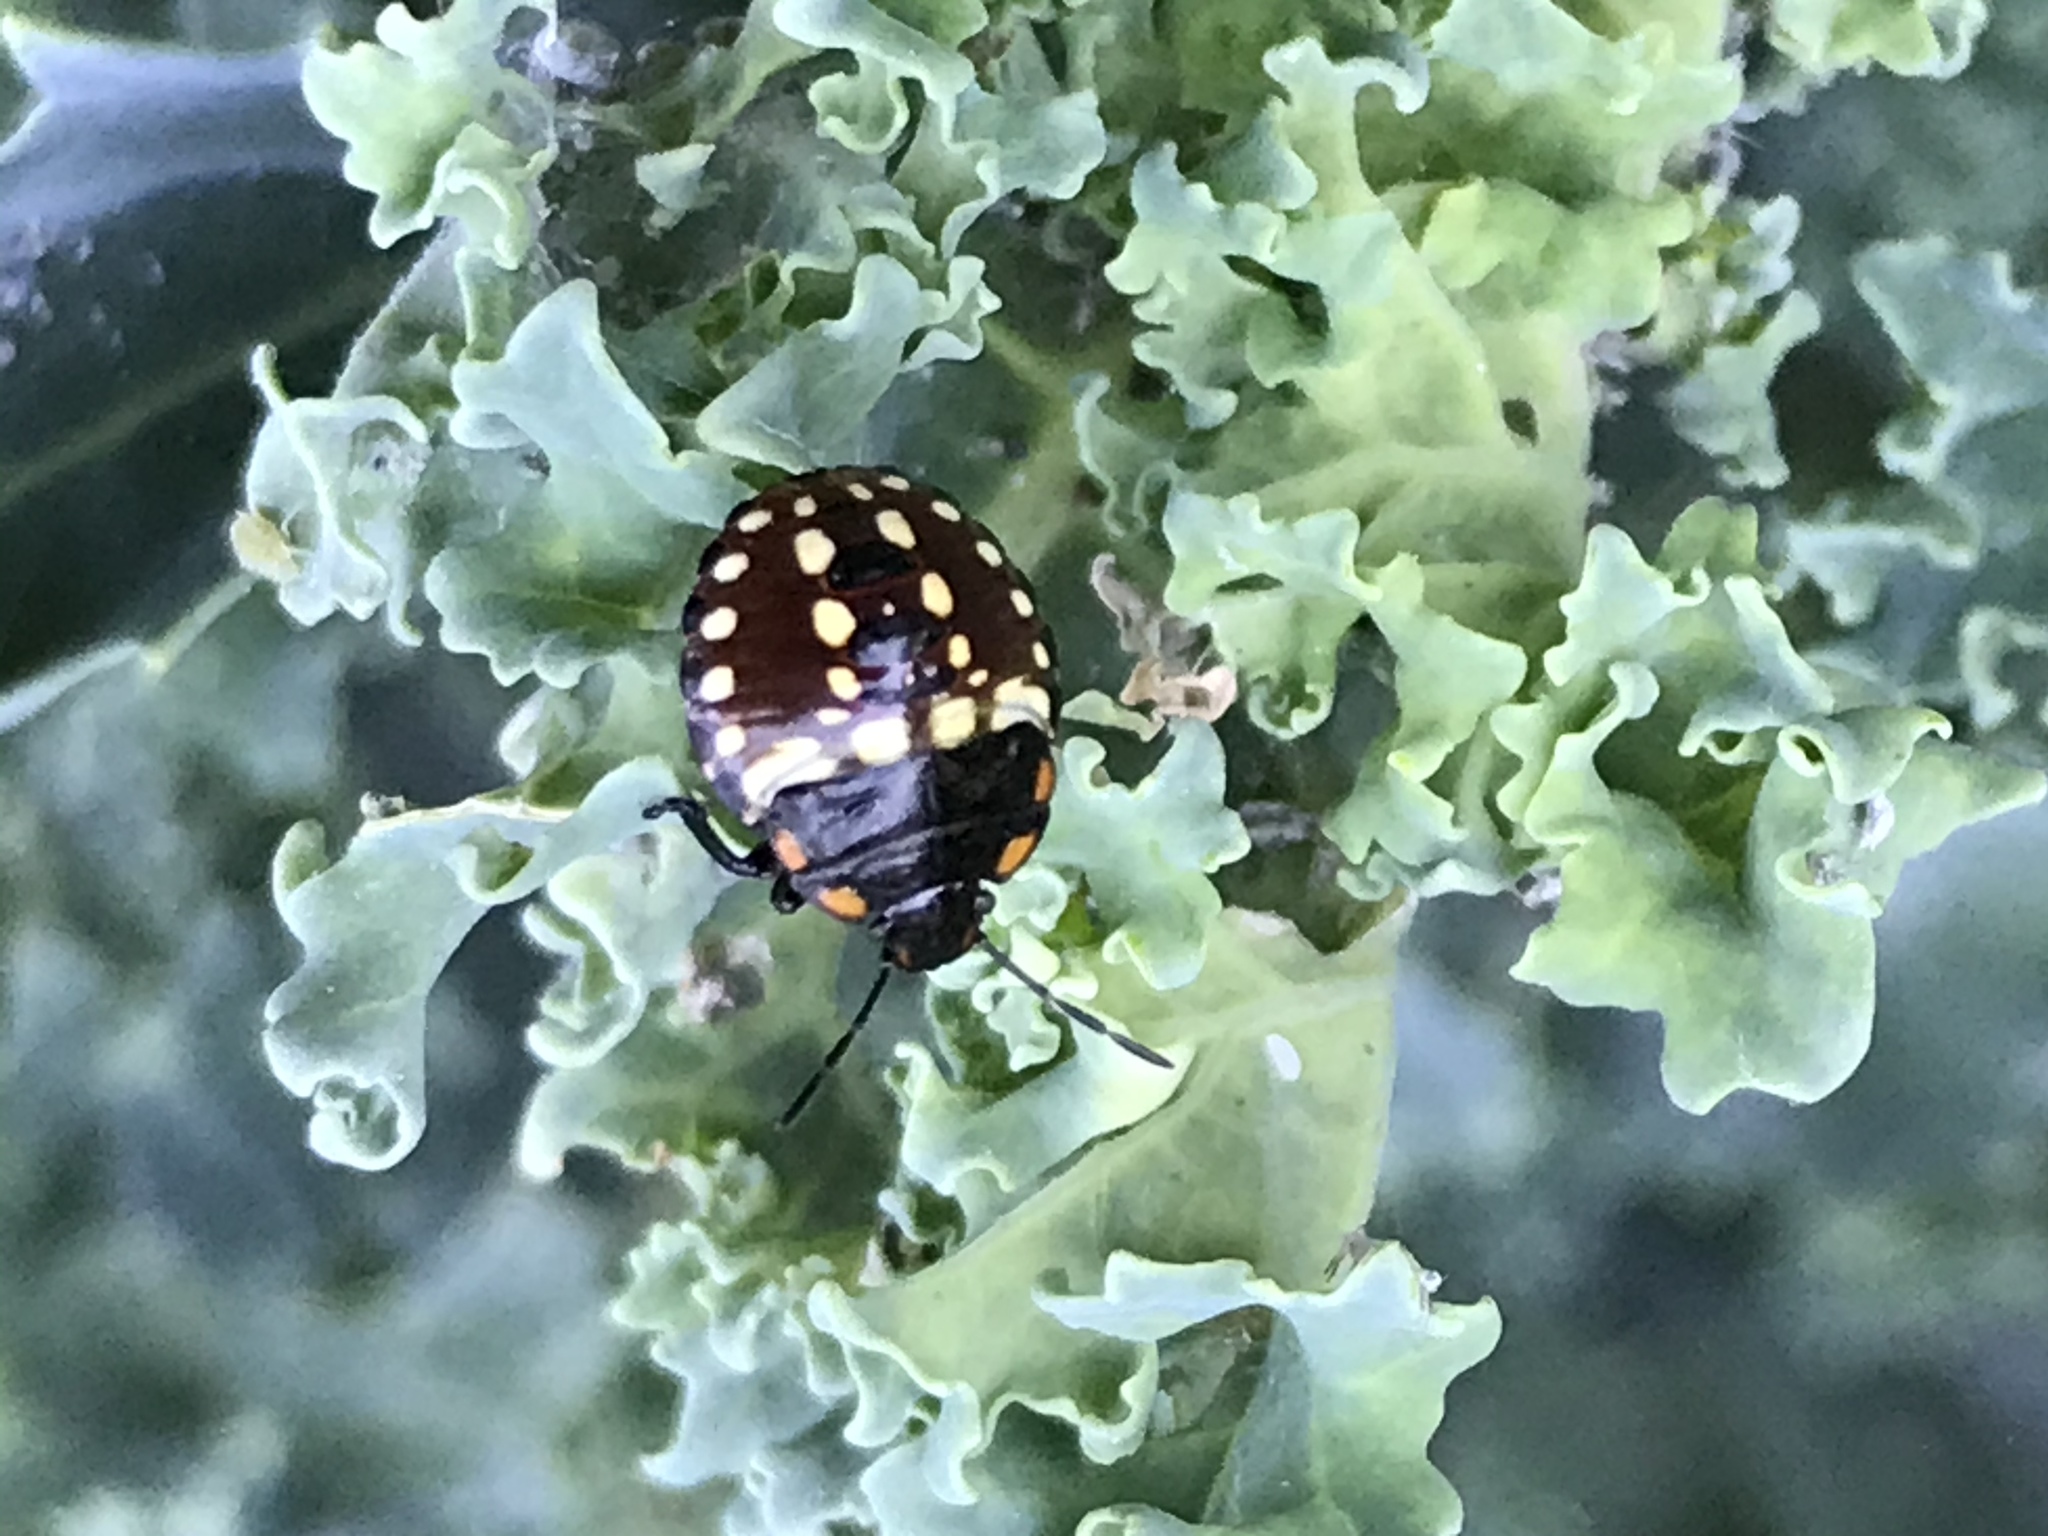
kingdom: Animalia
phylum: Arthropoda
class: Insecta
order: Hemiptera
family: Pentatomidae
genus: Nezara
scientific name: Nezara viridula
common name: Southern green stink bug
